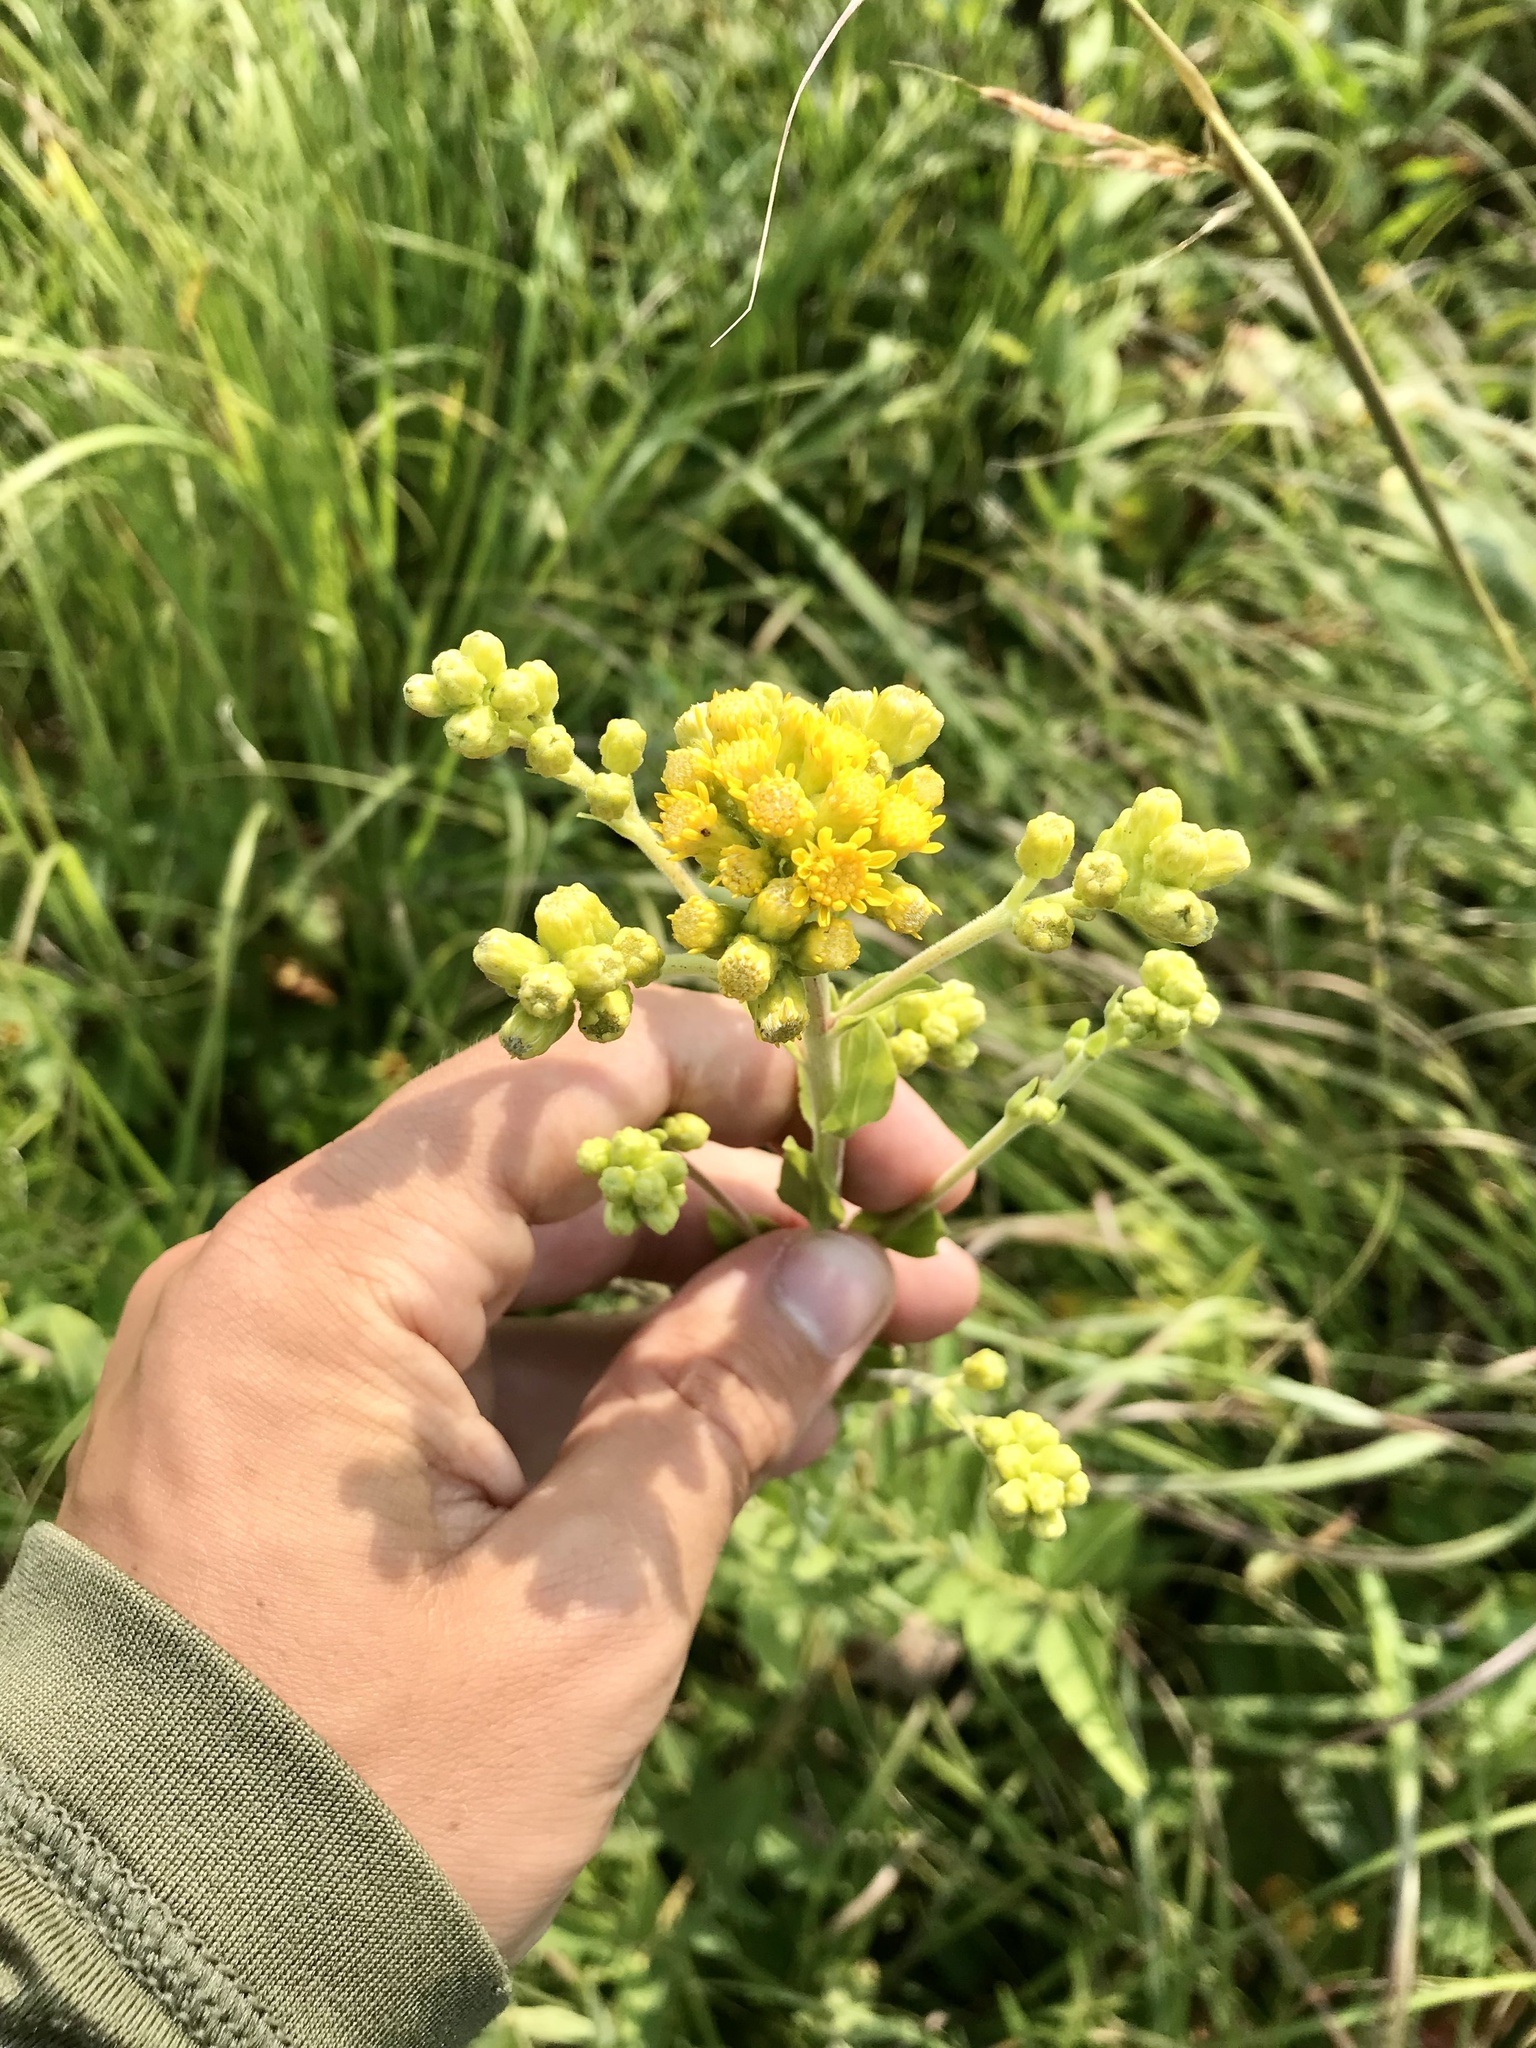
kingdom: Plantae
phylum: Tracheophyta
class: Magnoliopsida
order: Asterales
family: Asteraceae
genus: Solidago
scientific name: Solidago rigida
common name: Rigid goldenrod
